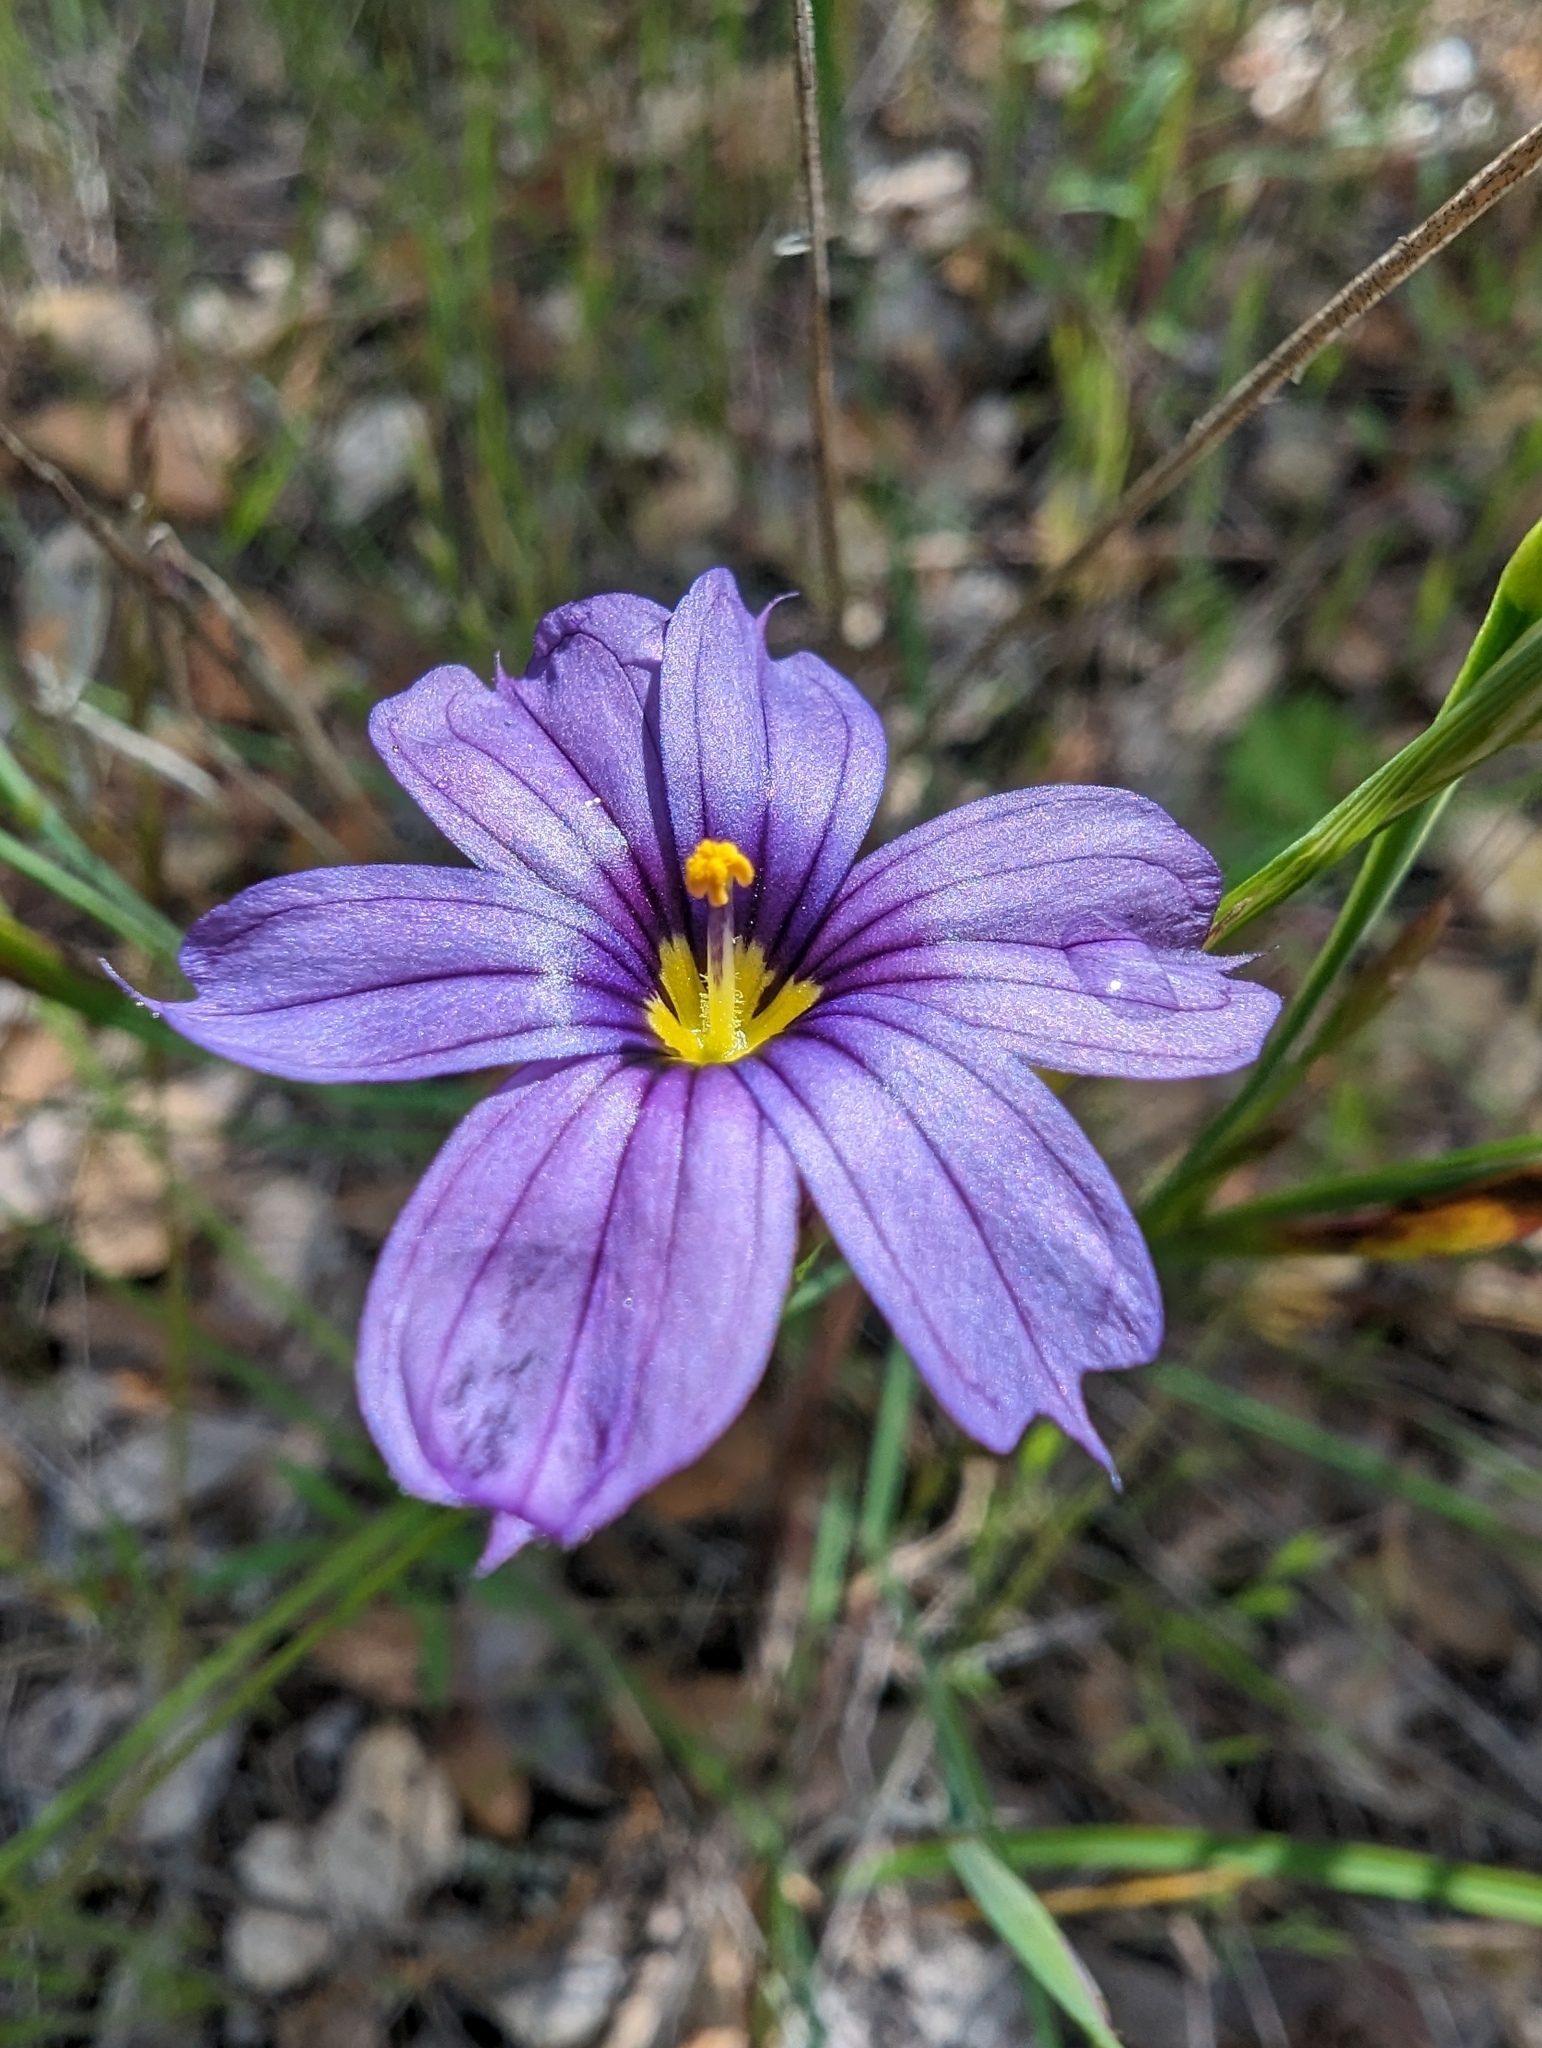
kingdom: Plantae
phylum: Tracheophyta
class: Liliopsida
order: Asparagales
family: Iridaceae
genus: Sisyrinchium
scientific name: Sisyrinchium bellum
